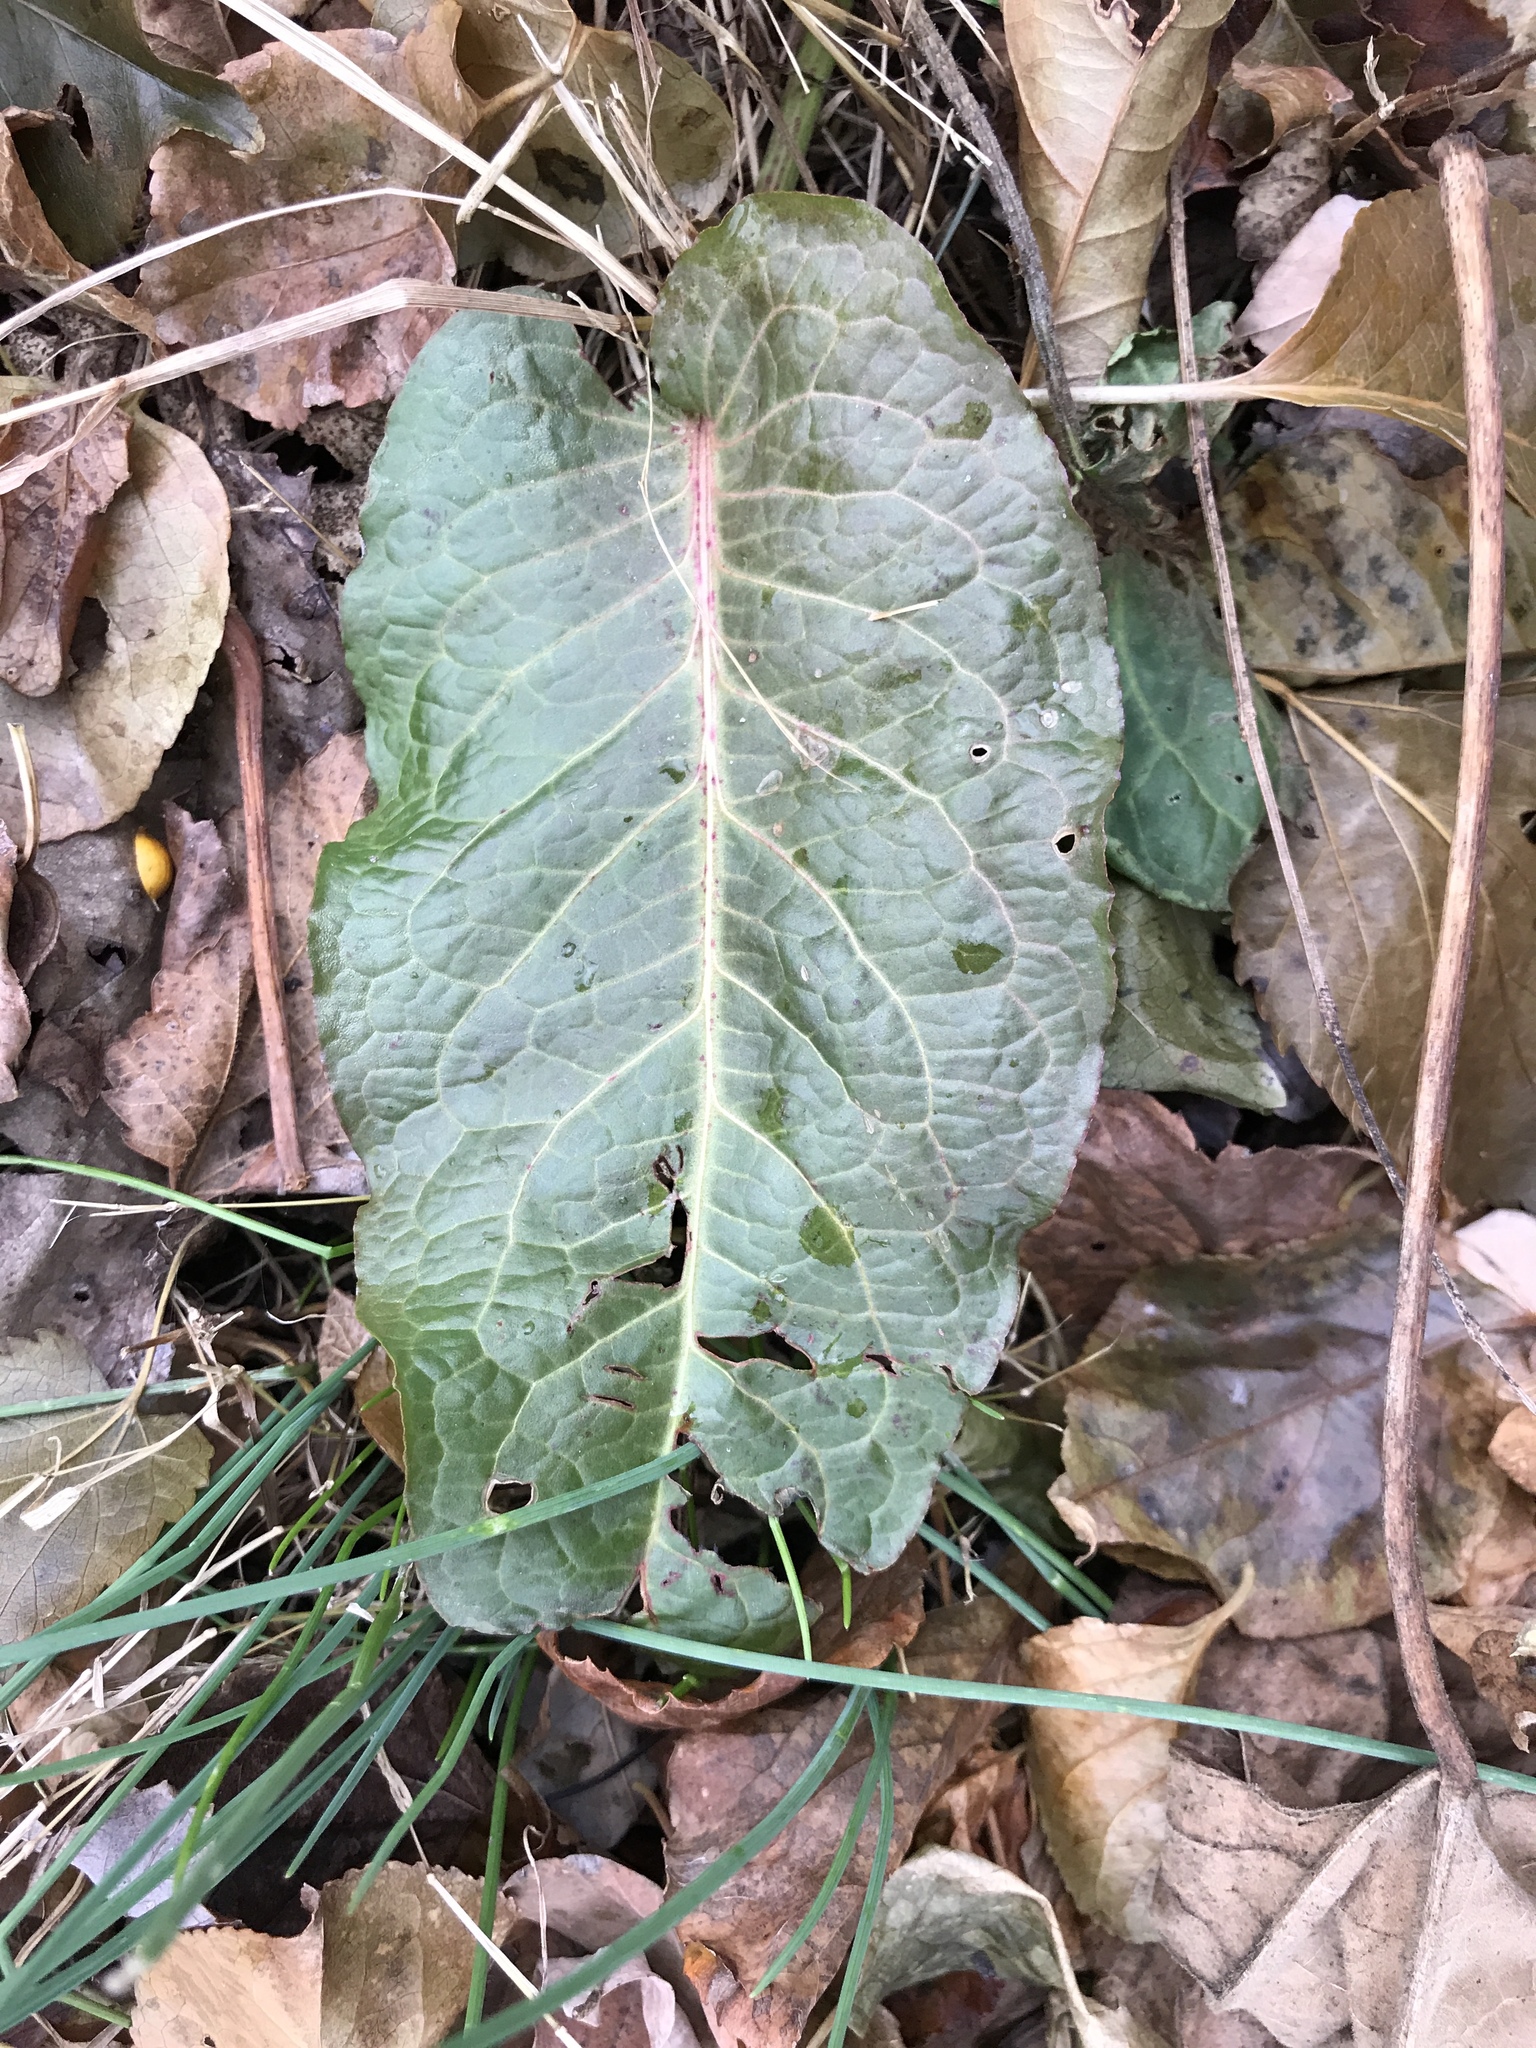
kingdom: Plantae
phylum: Tracheophyta
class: Magnoliopsida
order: Caryophyllales
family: Polygonaceae
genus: Rumex
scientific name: Rumex obtusifolius
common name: Bitter dock
